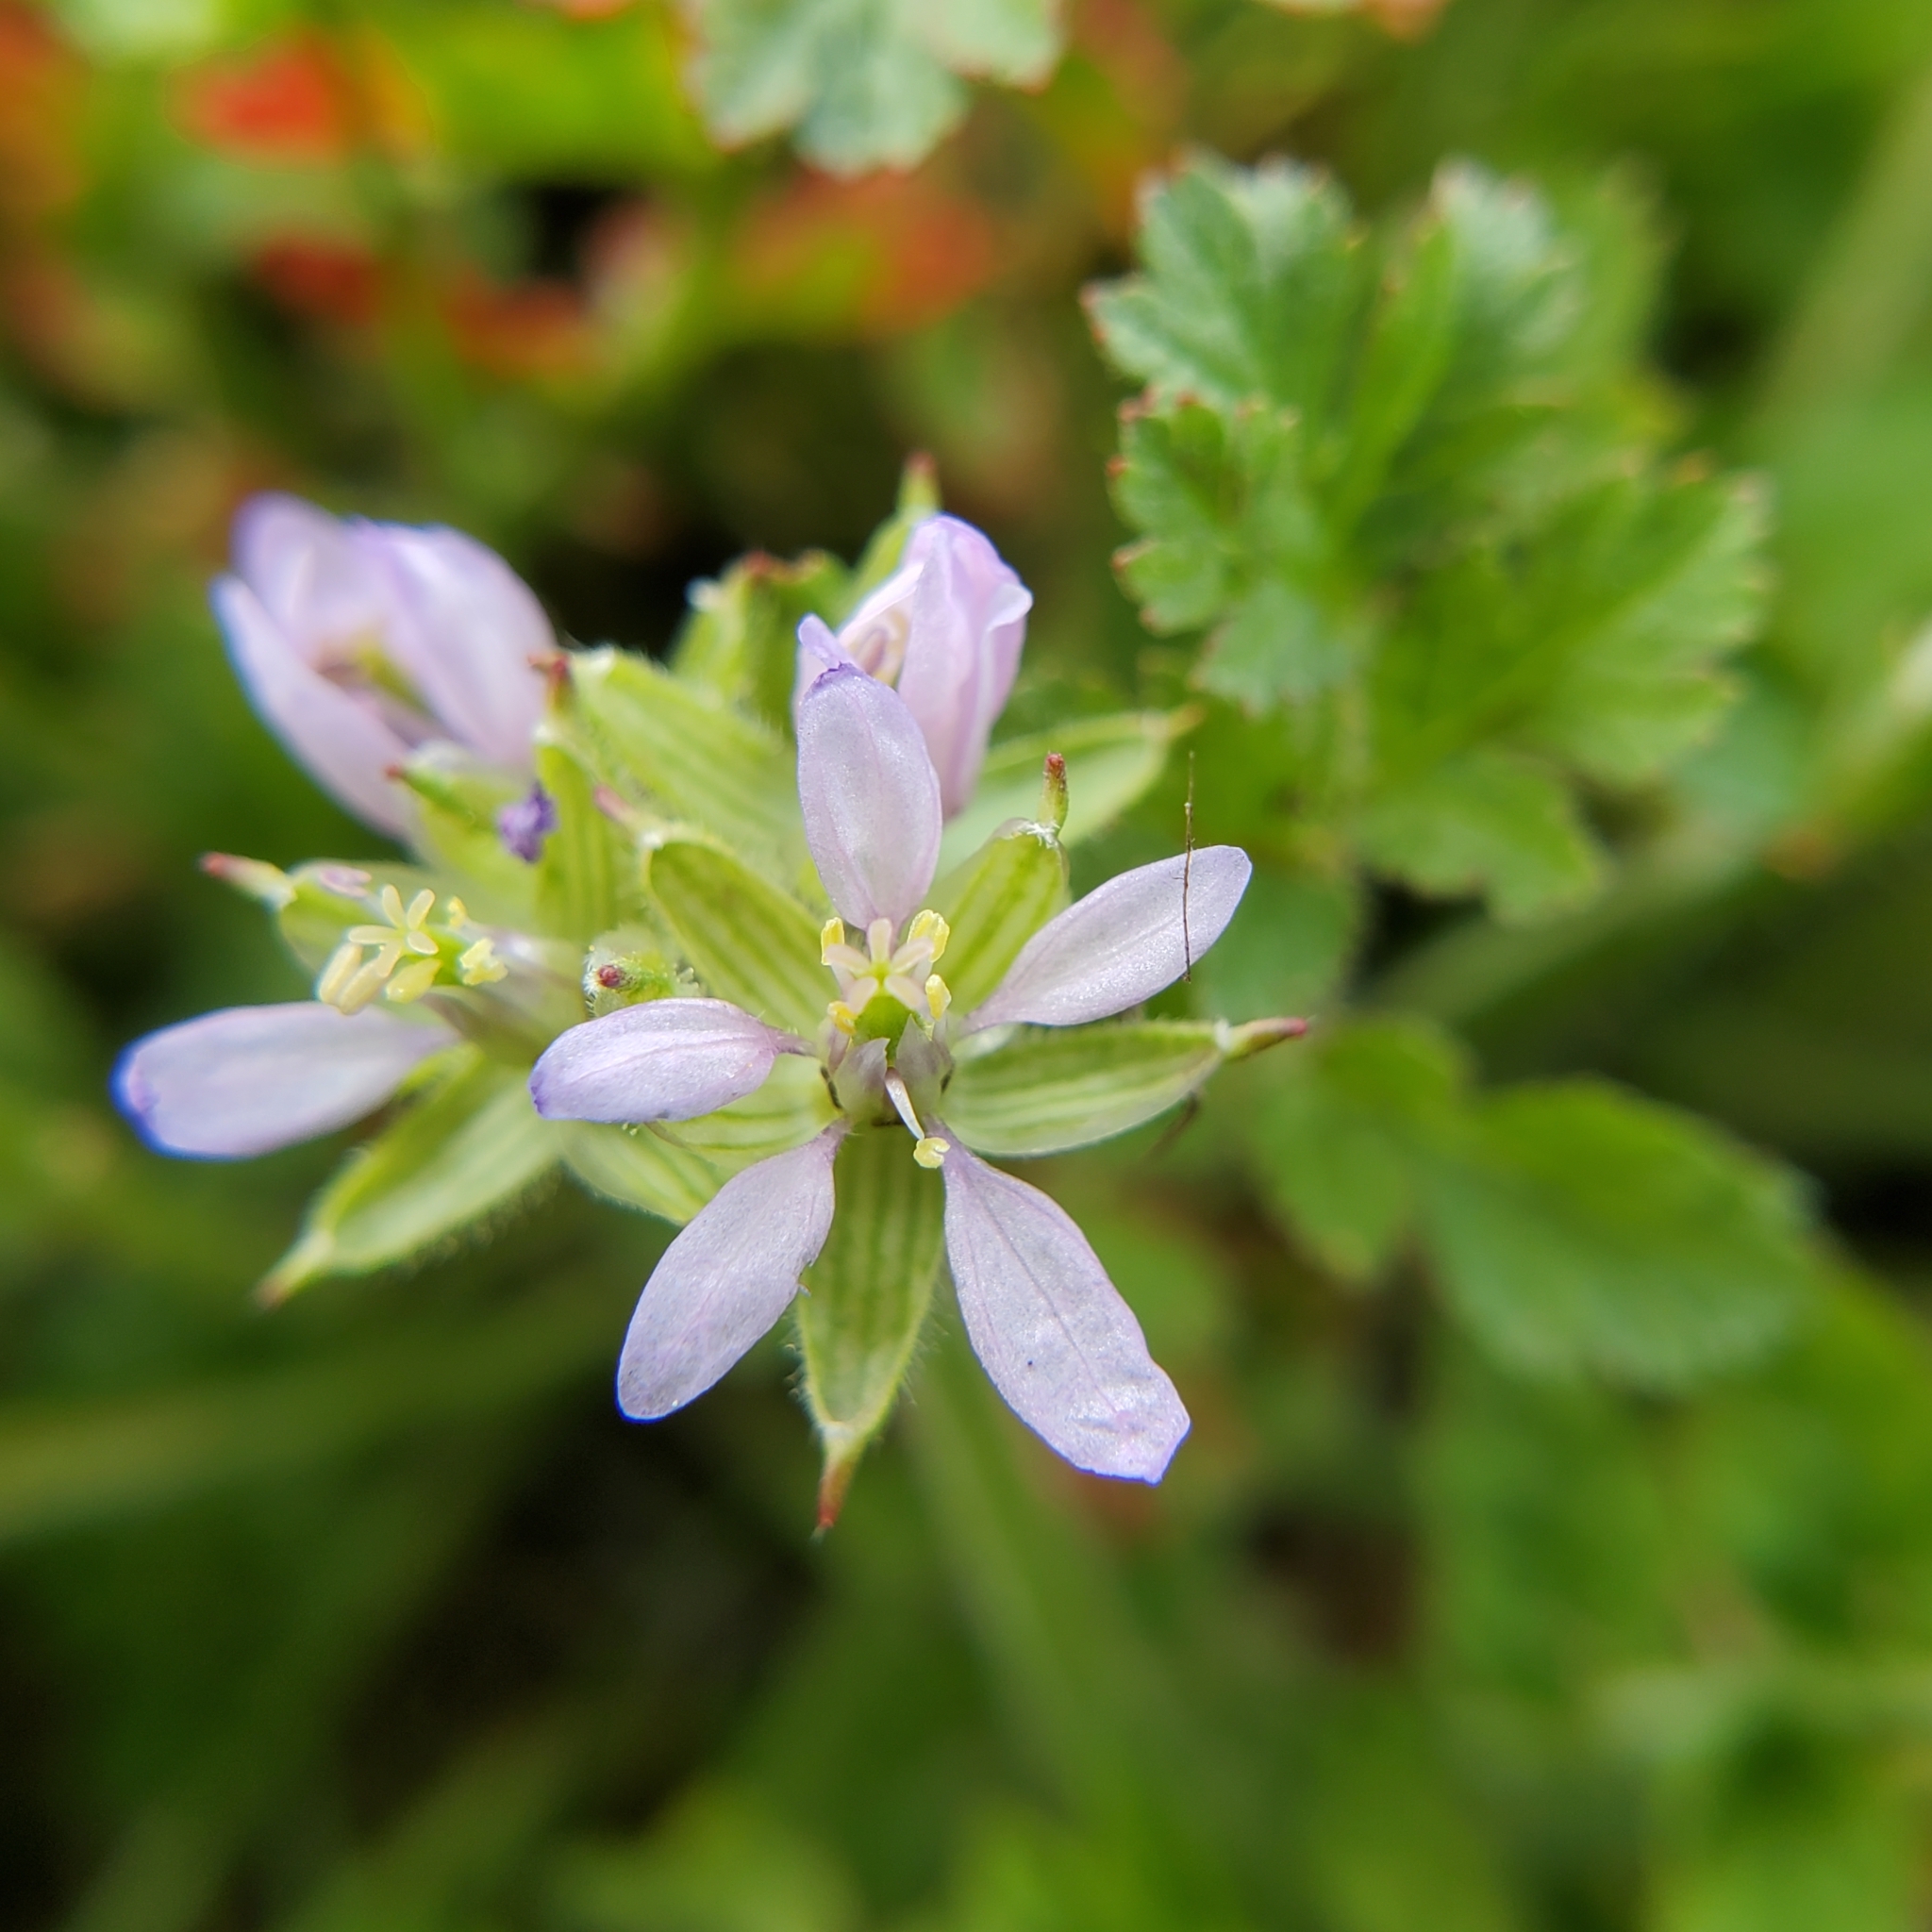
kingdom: Plantae
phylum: Tracheophyta
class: Magnoliopsida
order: Geraniales
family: Geraniaceae
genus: Erodium
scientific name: Erodium moschatum
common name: Musk stork's-bill
